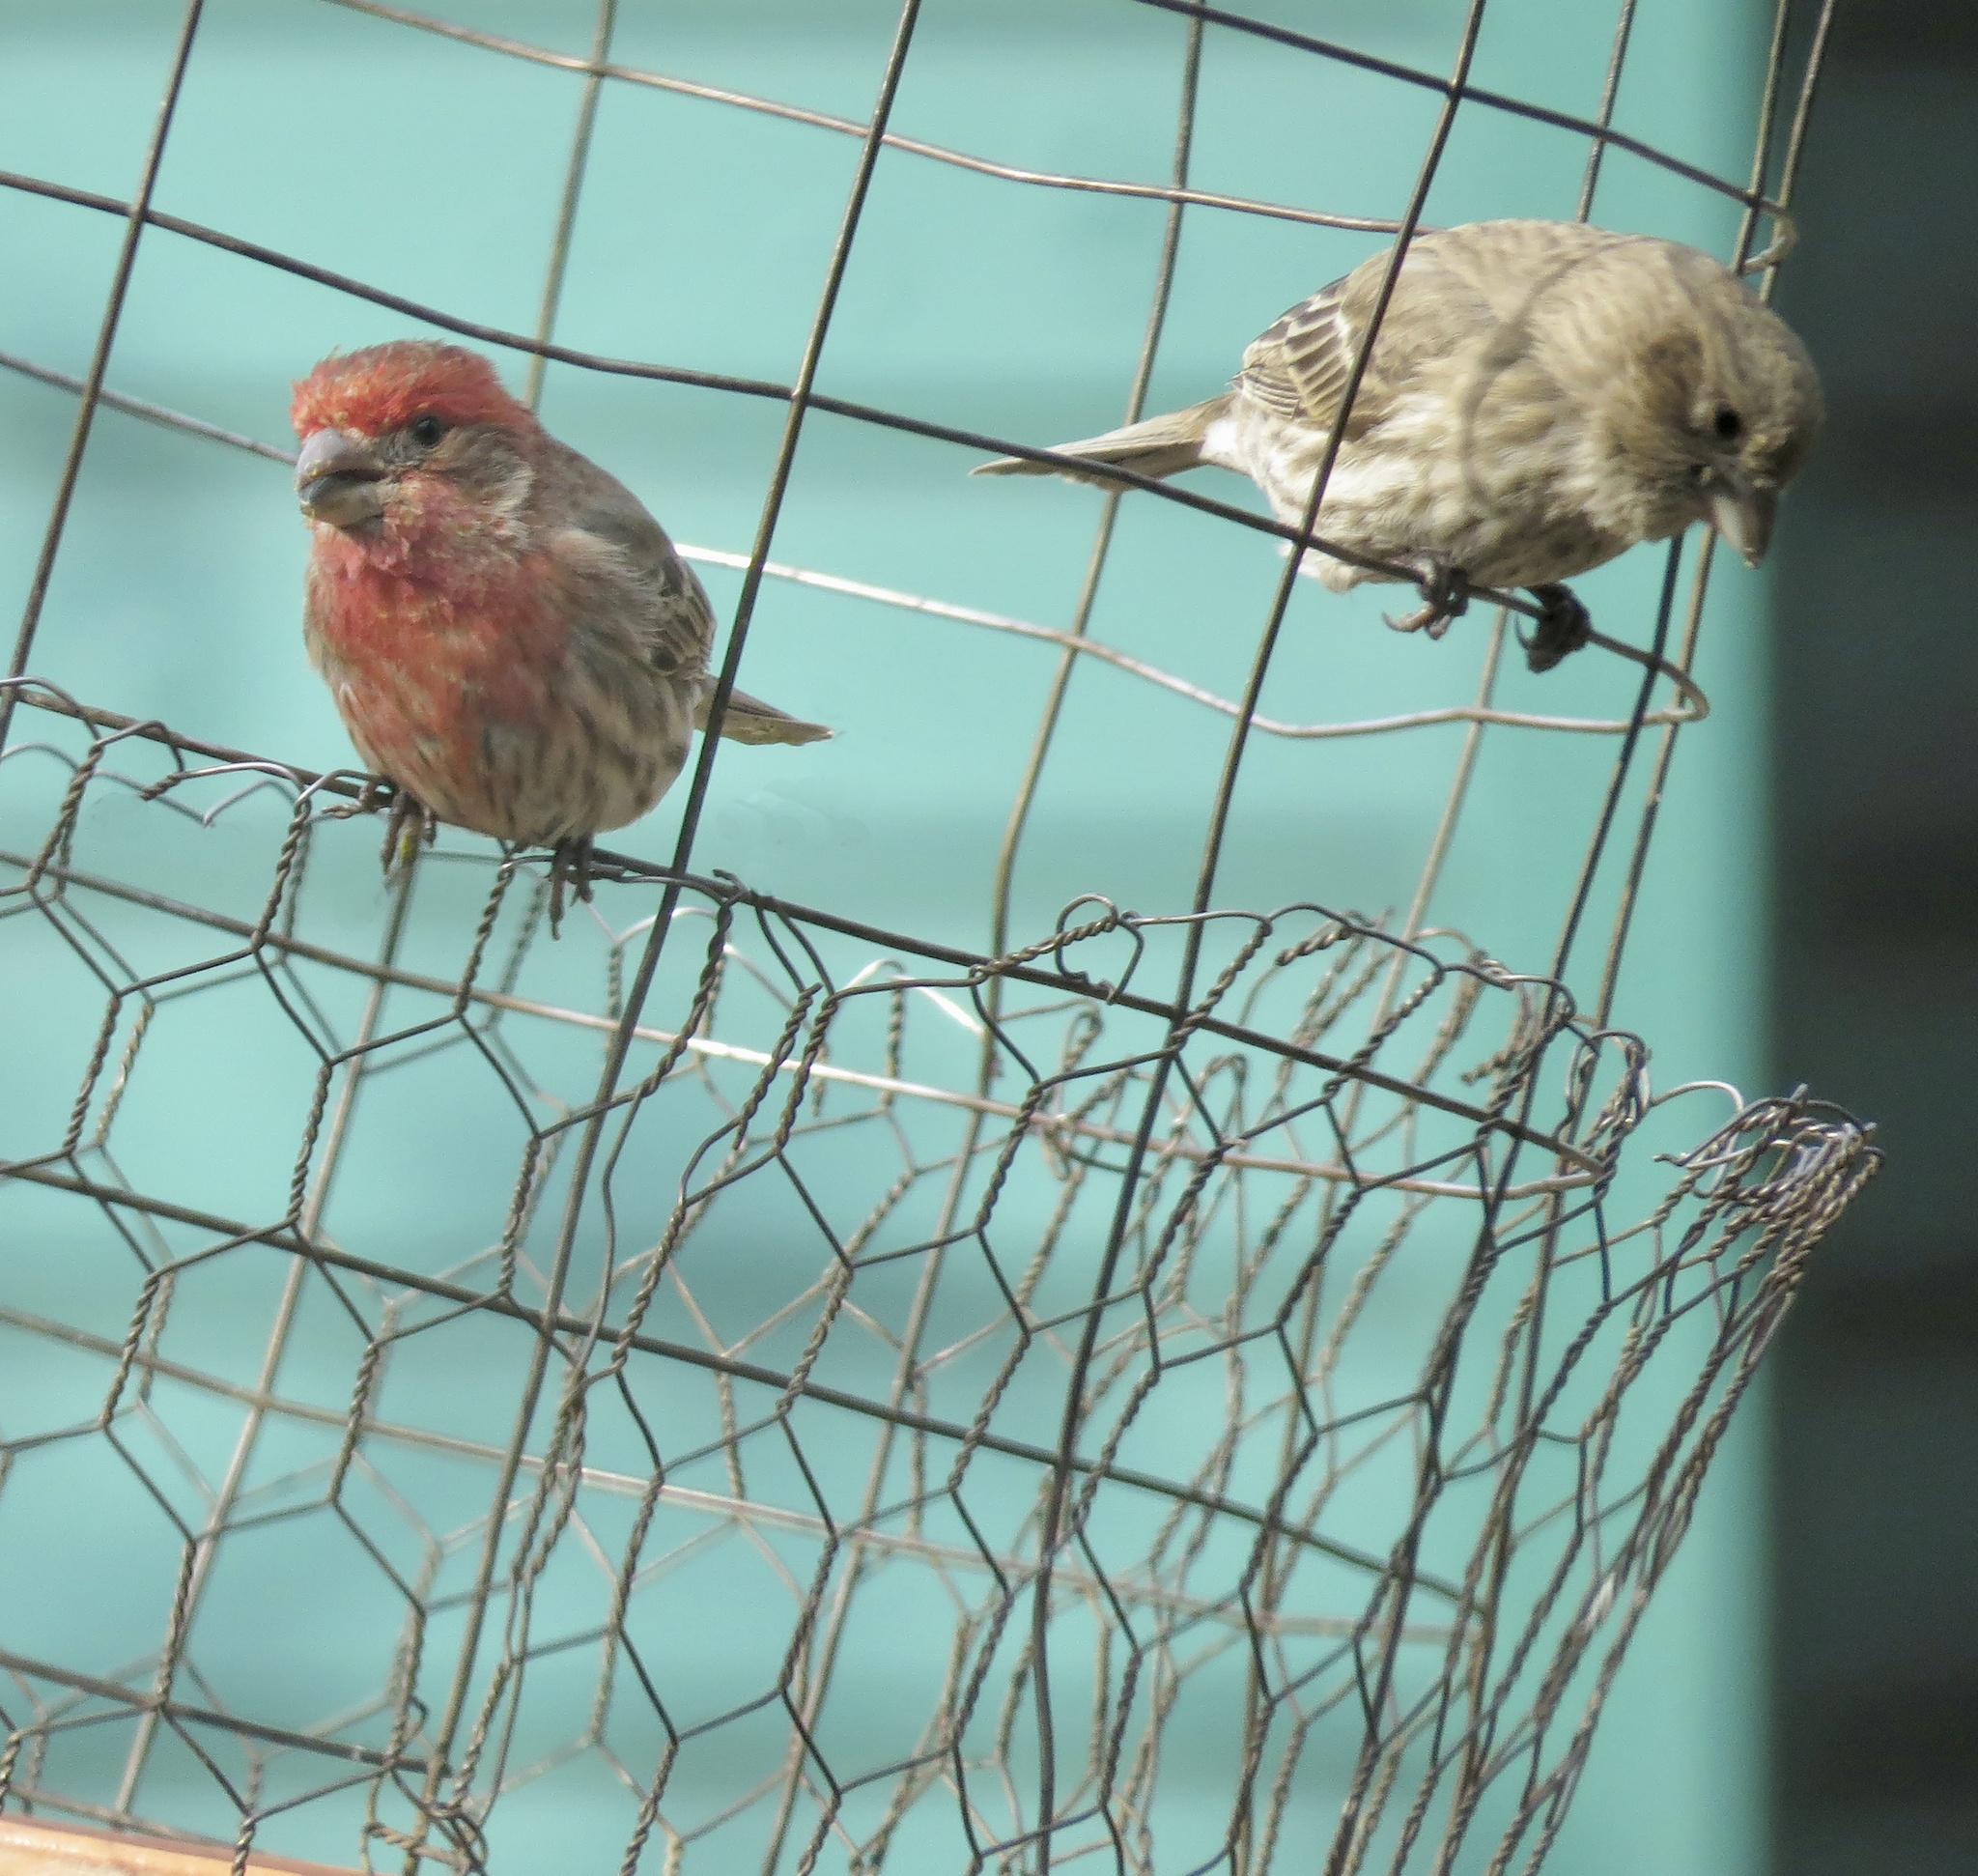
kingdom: Animalia
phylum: Chordata
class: Aves
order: Passeriformes
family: Fringillidae
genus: Haemorhous
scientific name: Haemorhous mexicanus
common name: House finch
